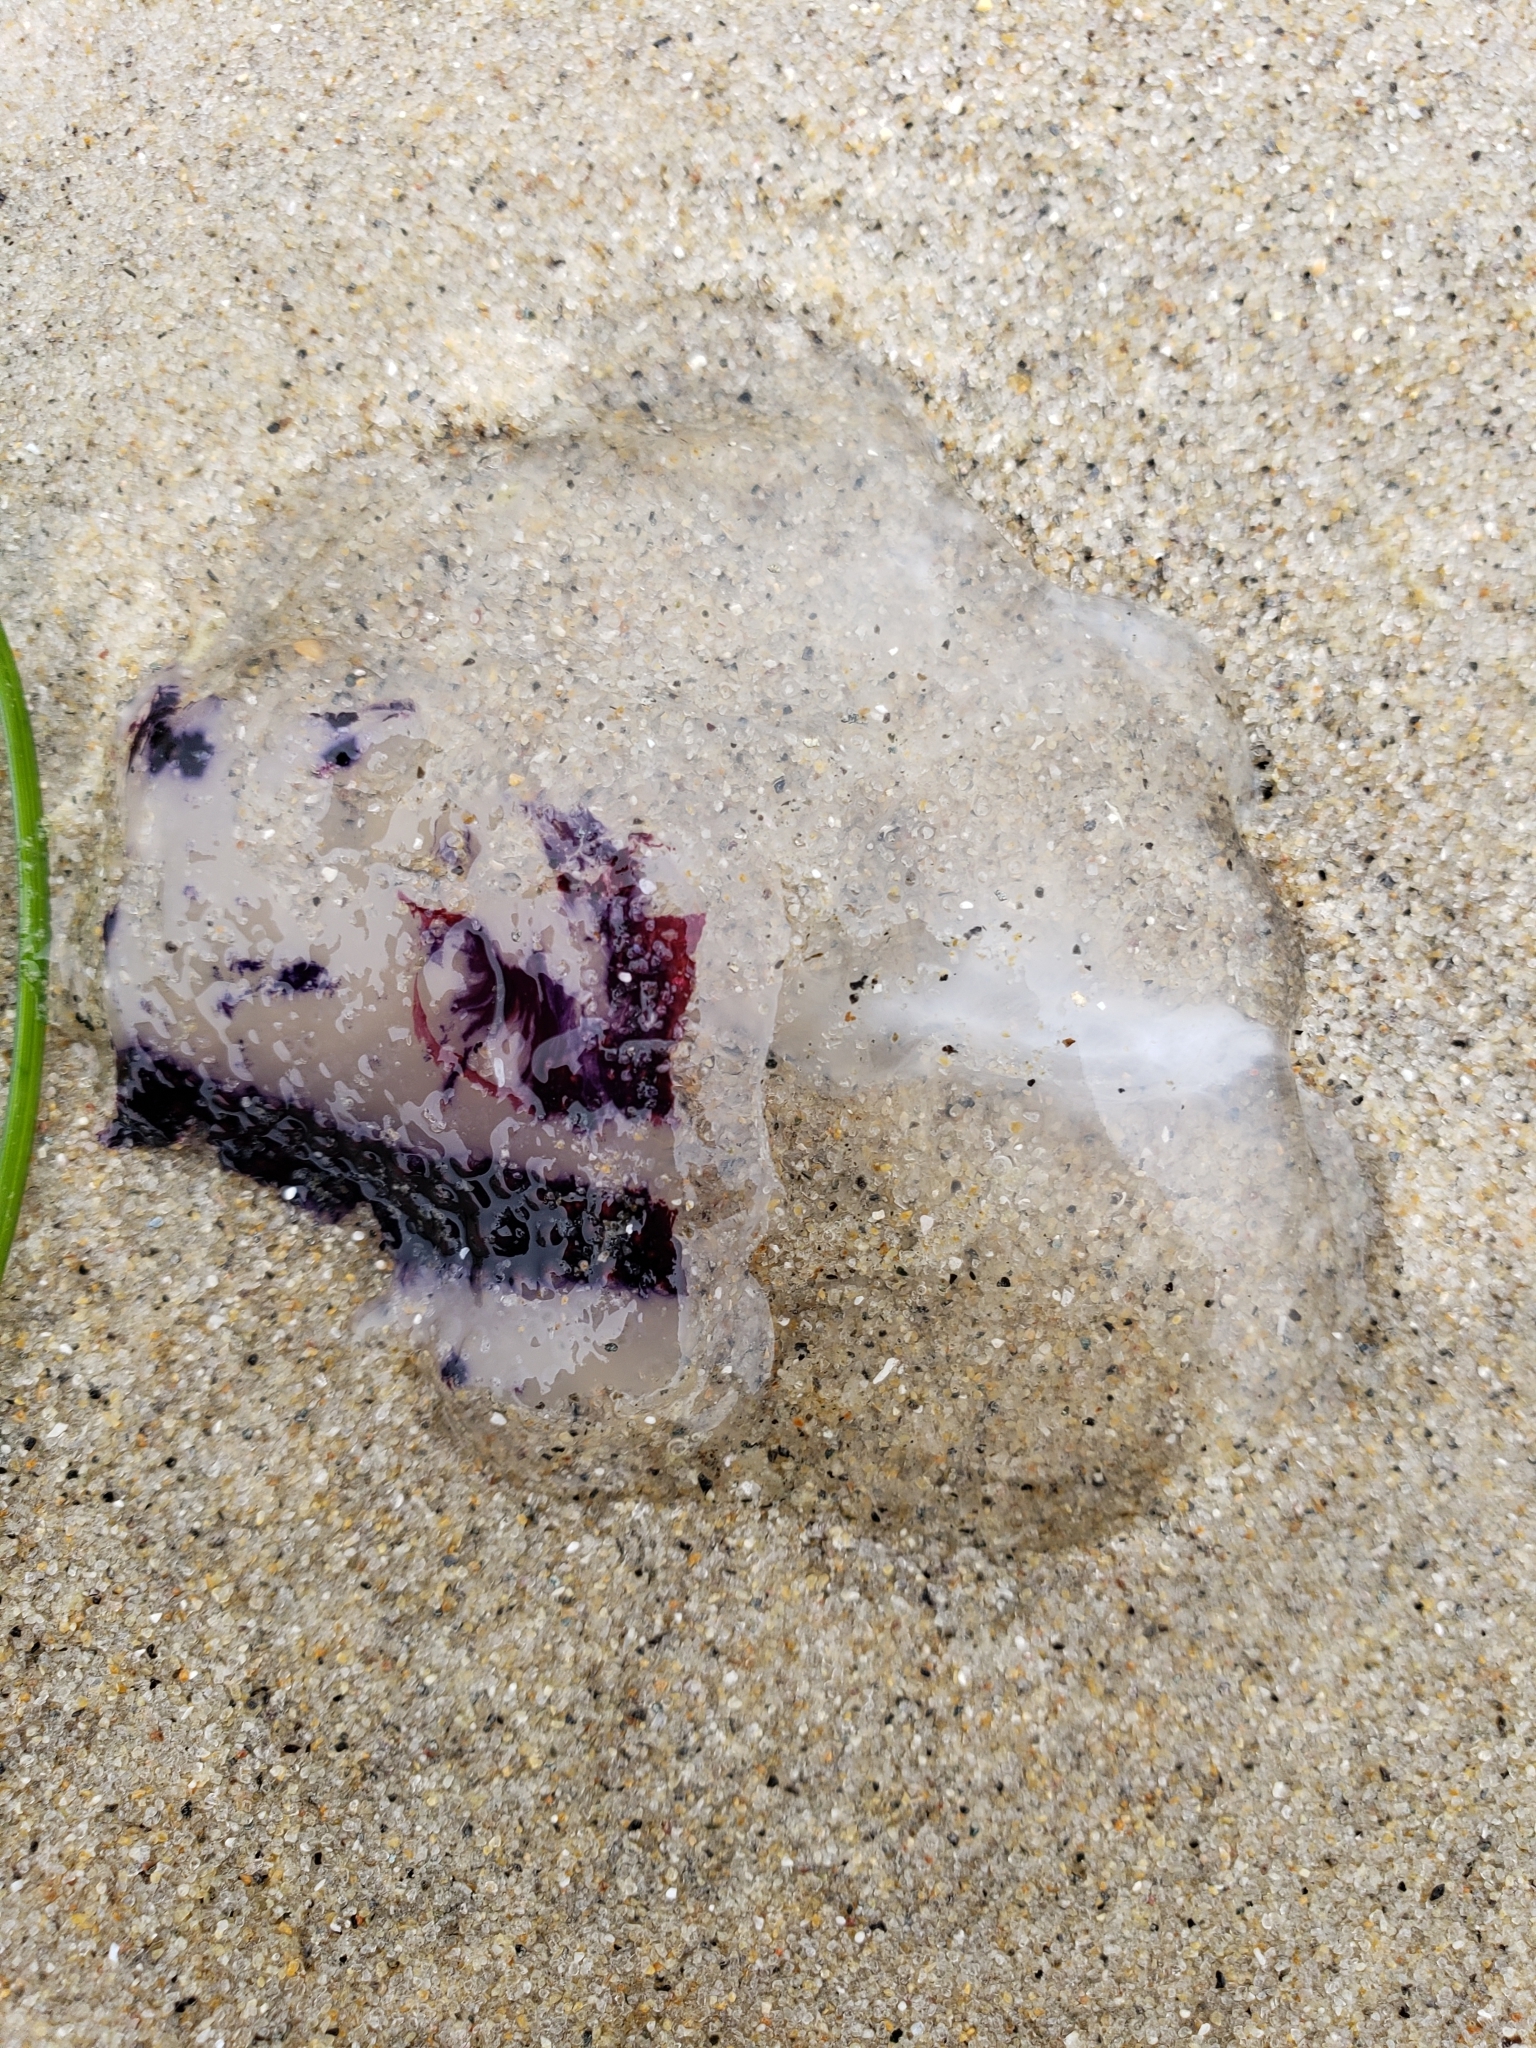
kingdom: Animalia
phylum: Cnidaria
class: Scyphozoa
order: Semaeostomeae
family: Pelagiidae
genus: Chrysaora
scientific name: Chrysaora colorata
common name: Purple-striped jellyfish
